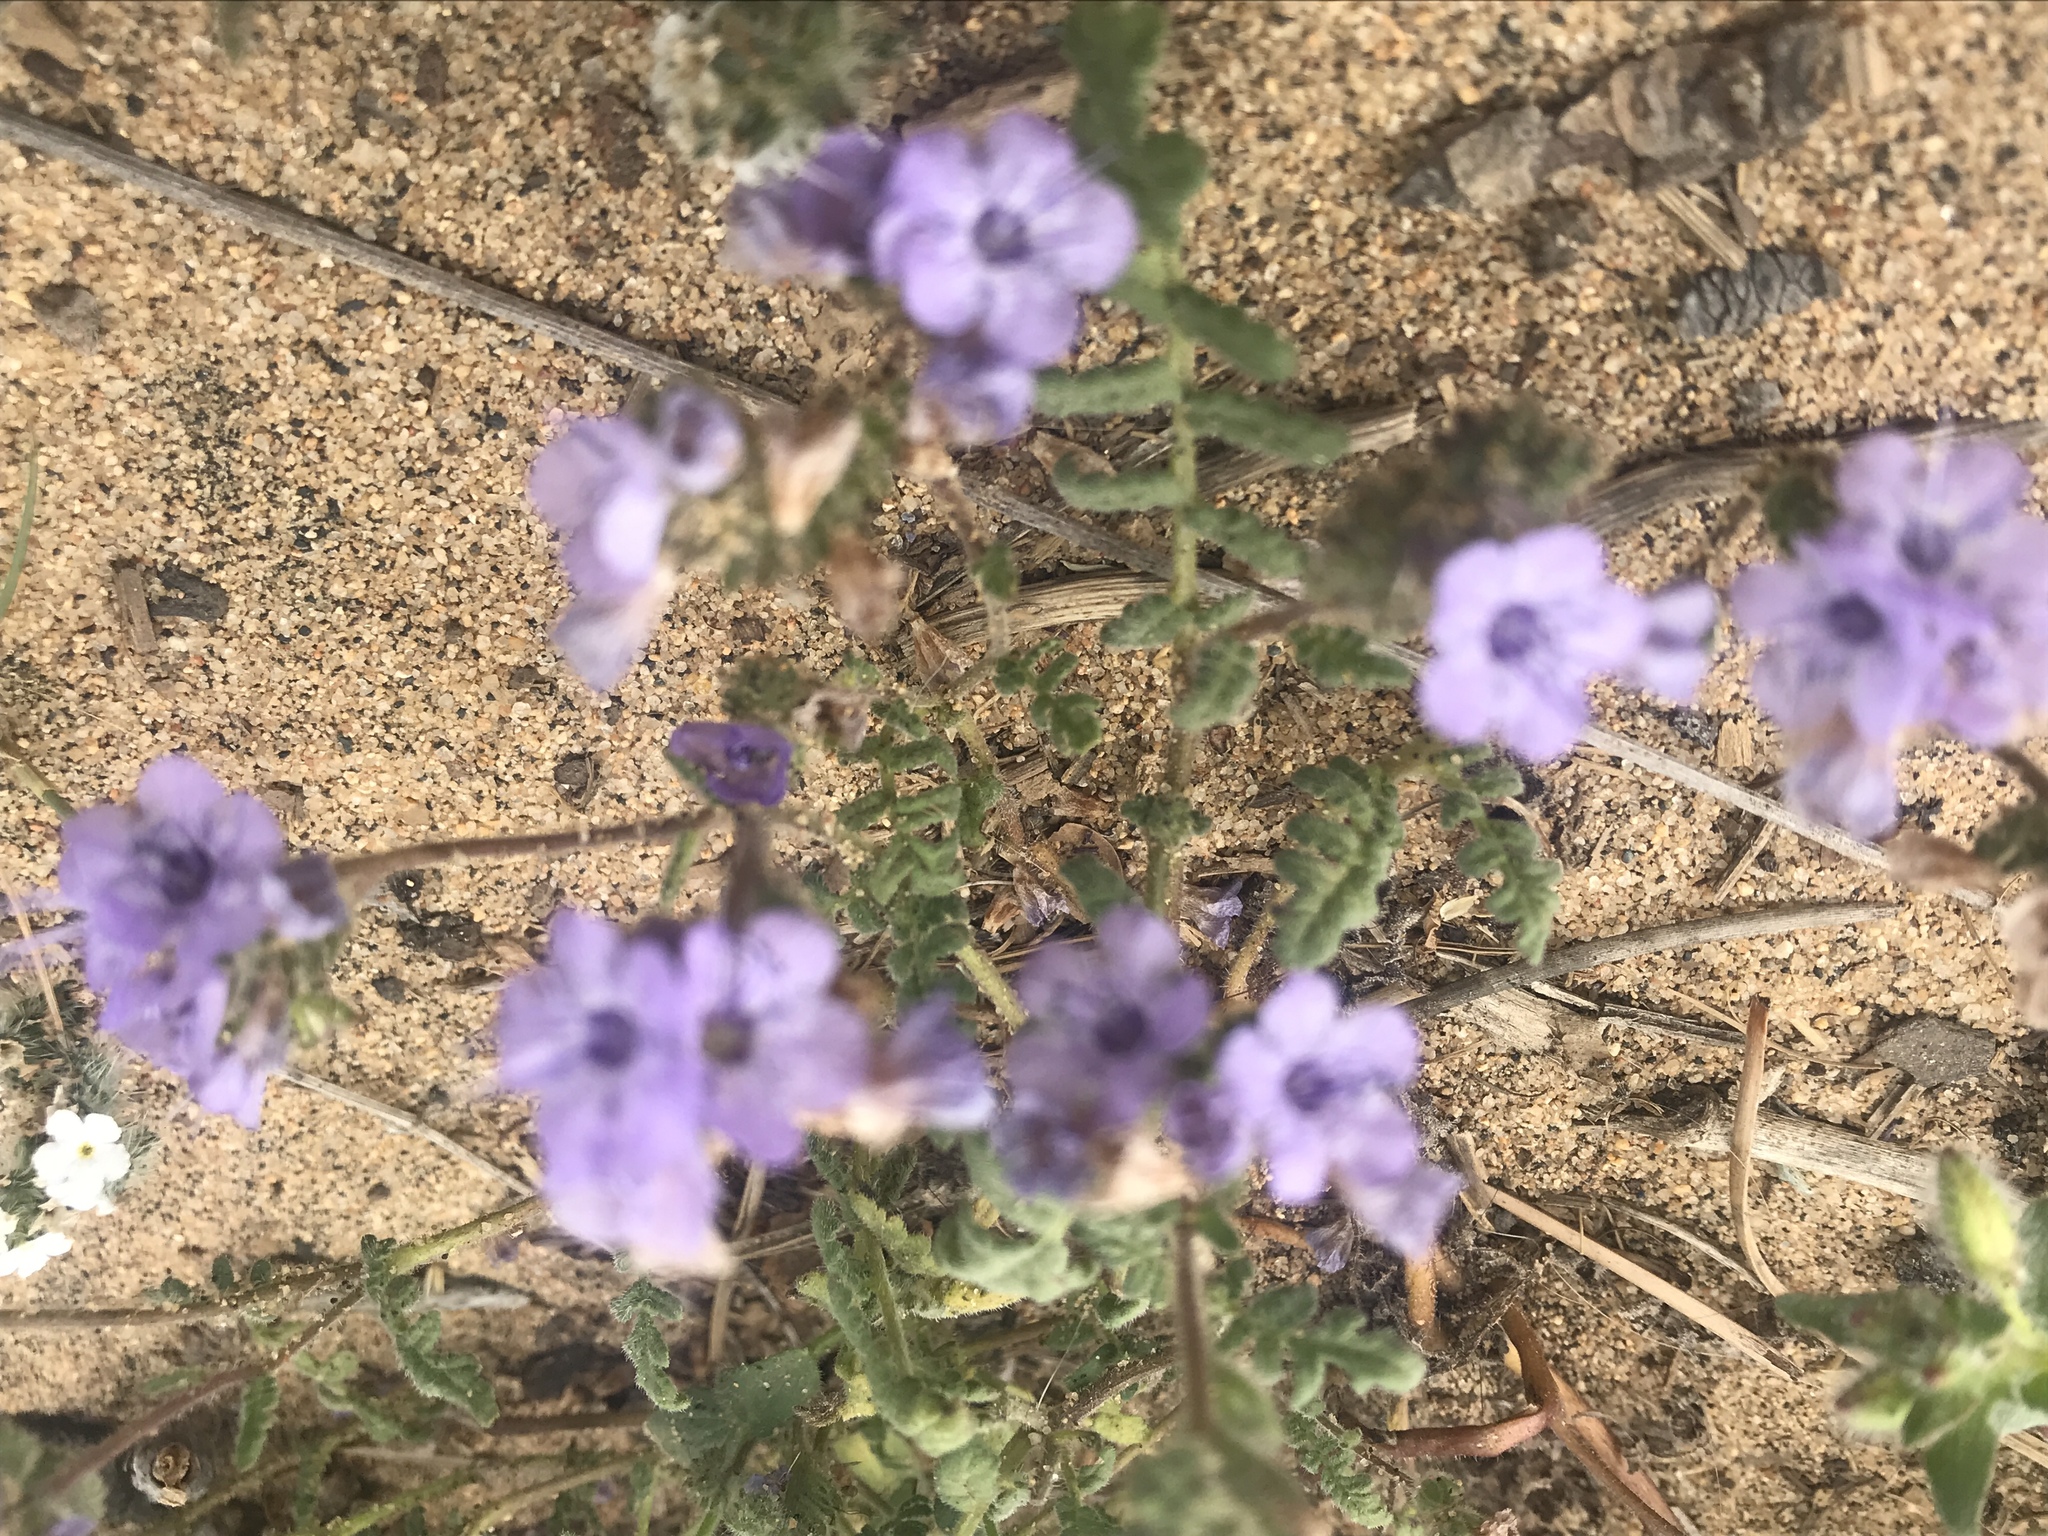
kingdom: Plantae
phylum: Tracheophyta
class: Magnoliopsida
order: Boraginales
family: Hydrophyllaceae
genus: Phacelia
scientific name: Phacelia distans
